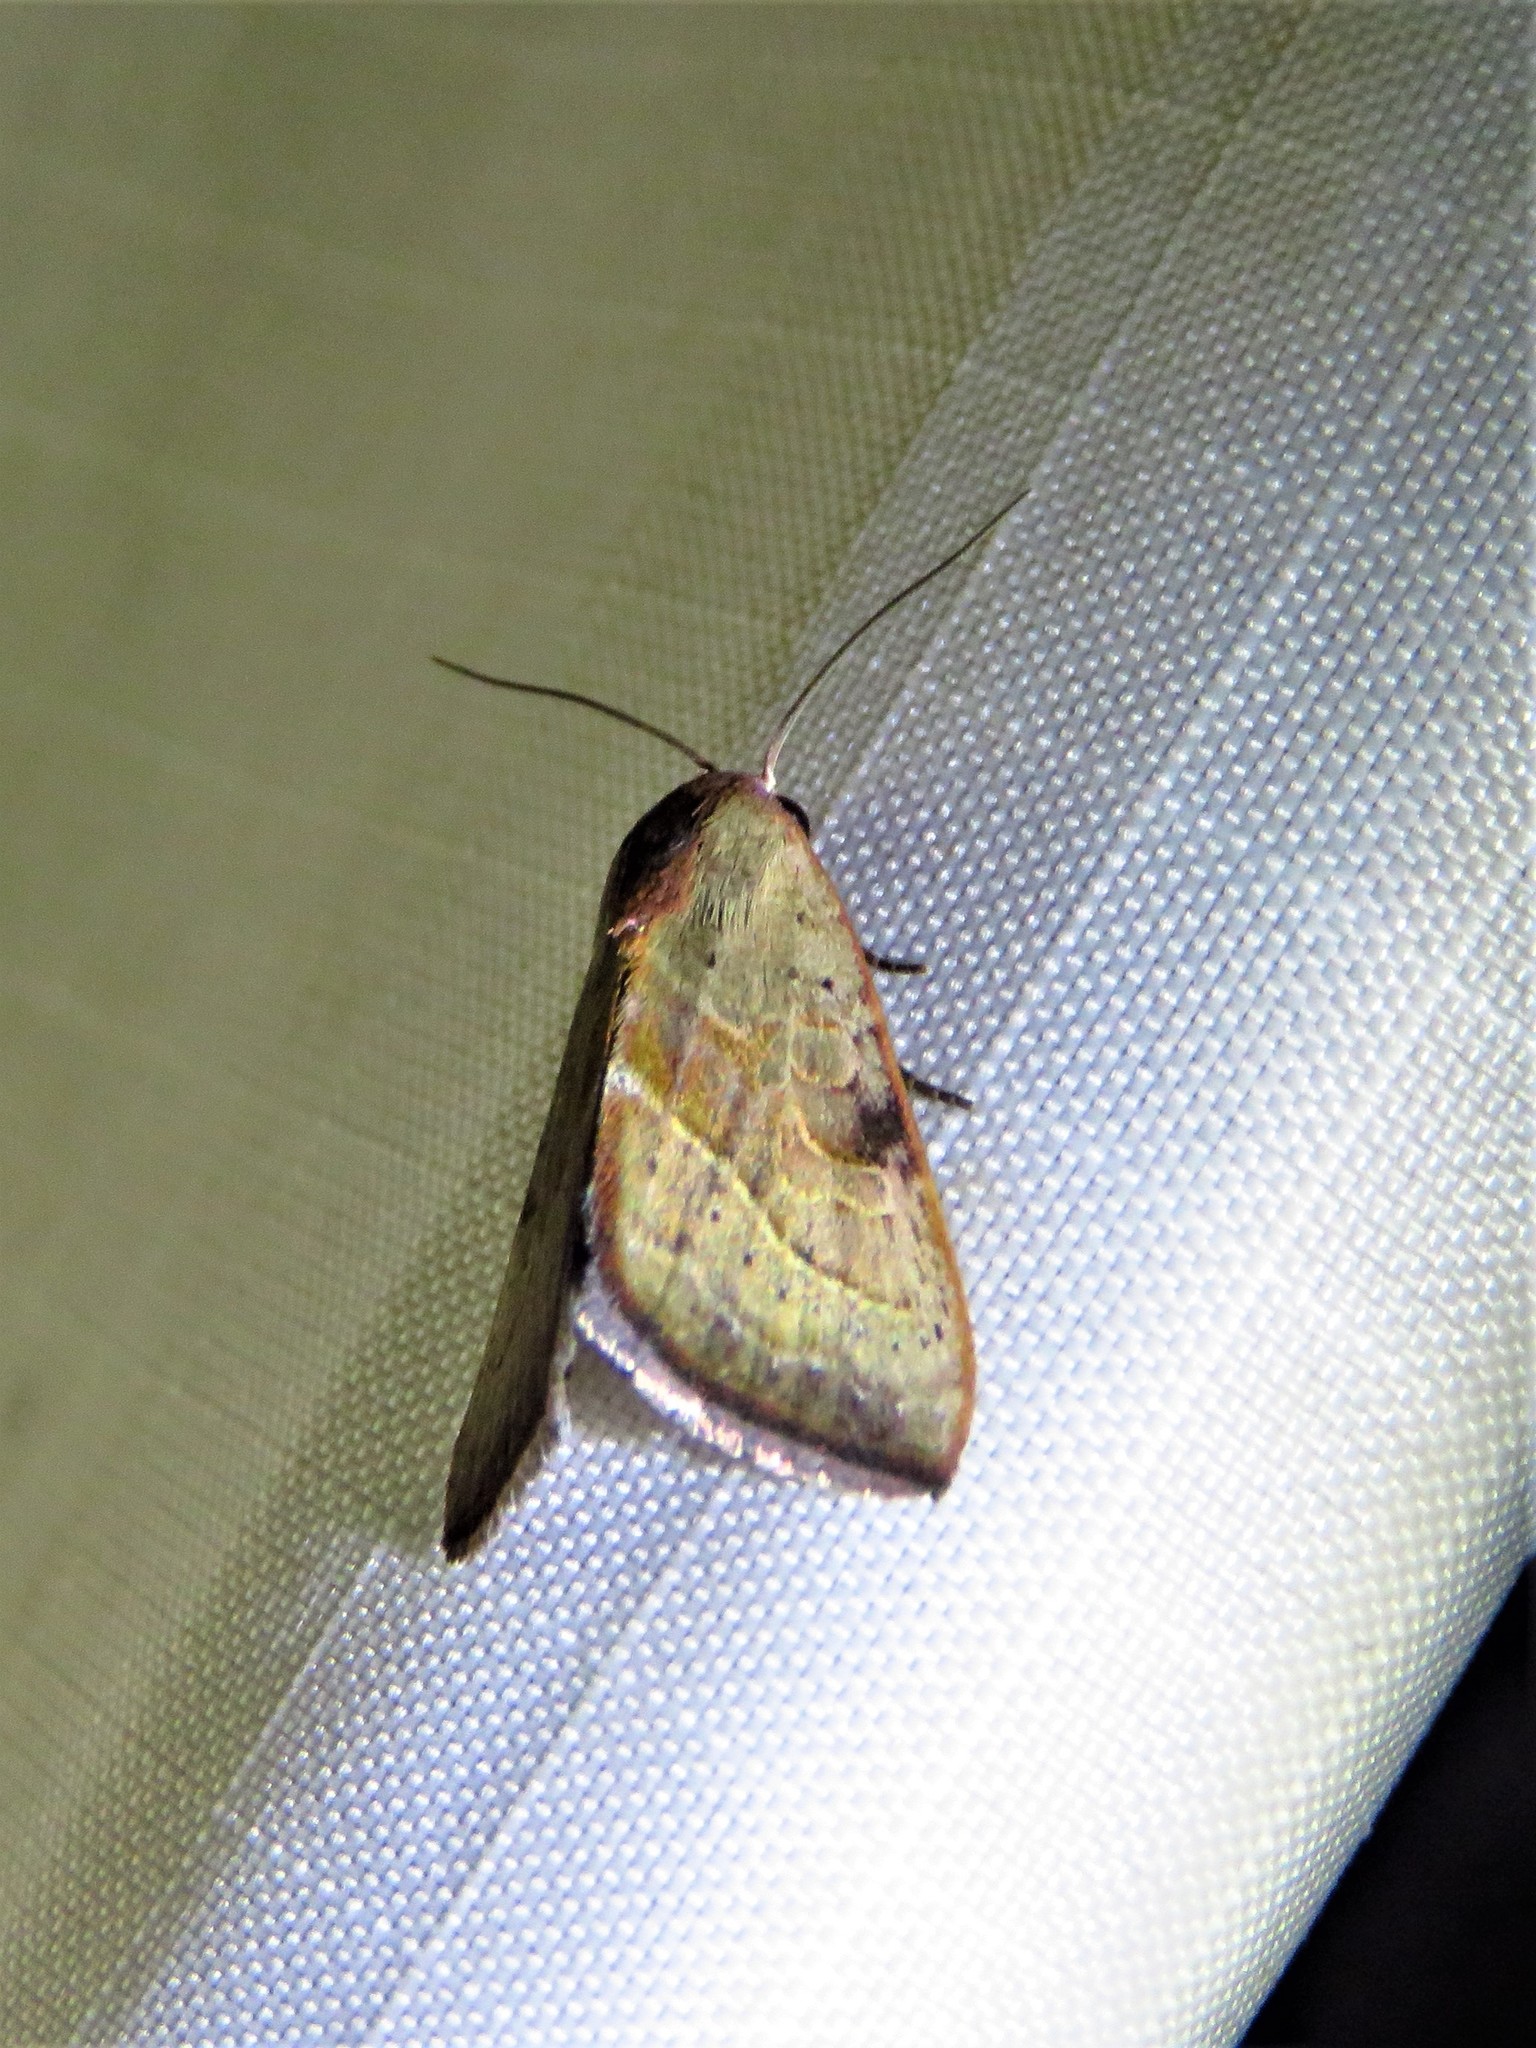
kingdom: Animalia
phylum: Arthropoda
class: Insecta
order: Lepidoptera
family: Noctuidae
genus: Galgula
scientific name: Galgula partita
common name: Wedgeling
